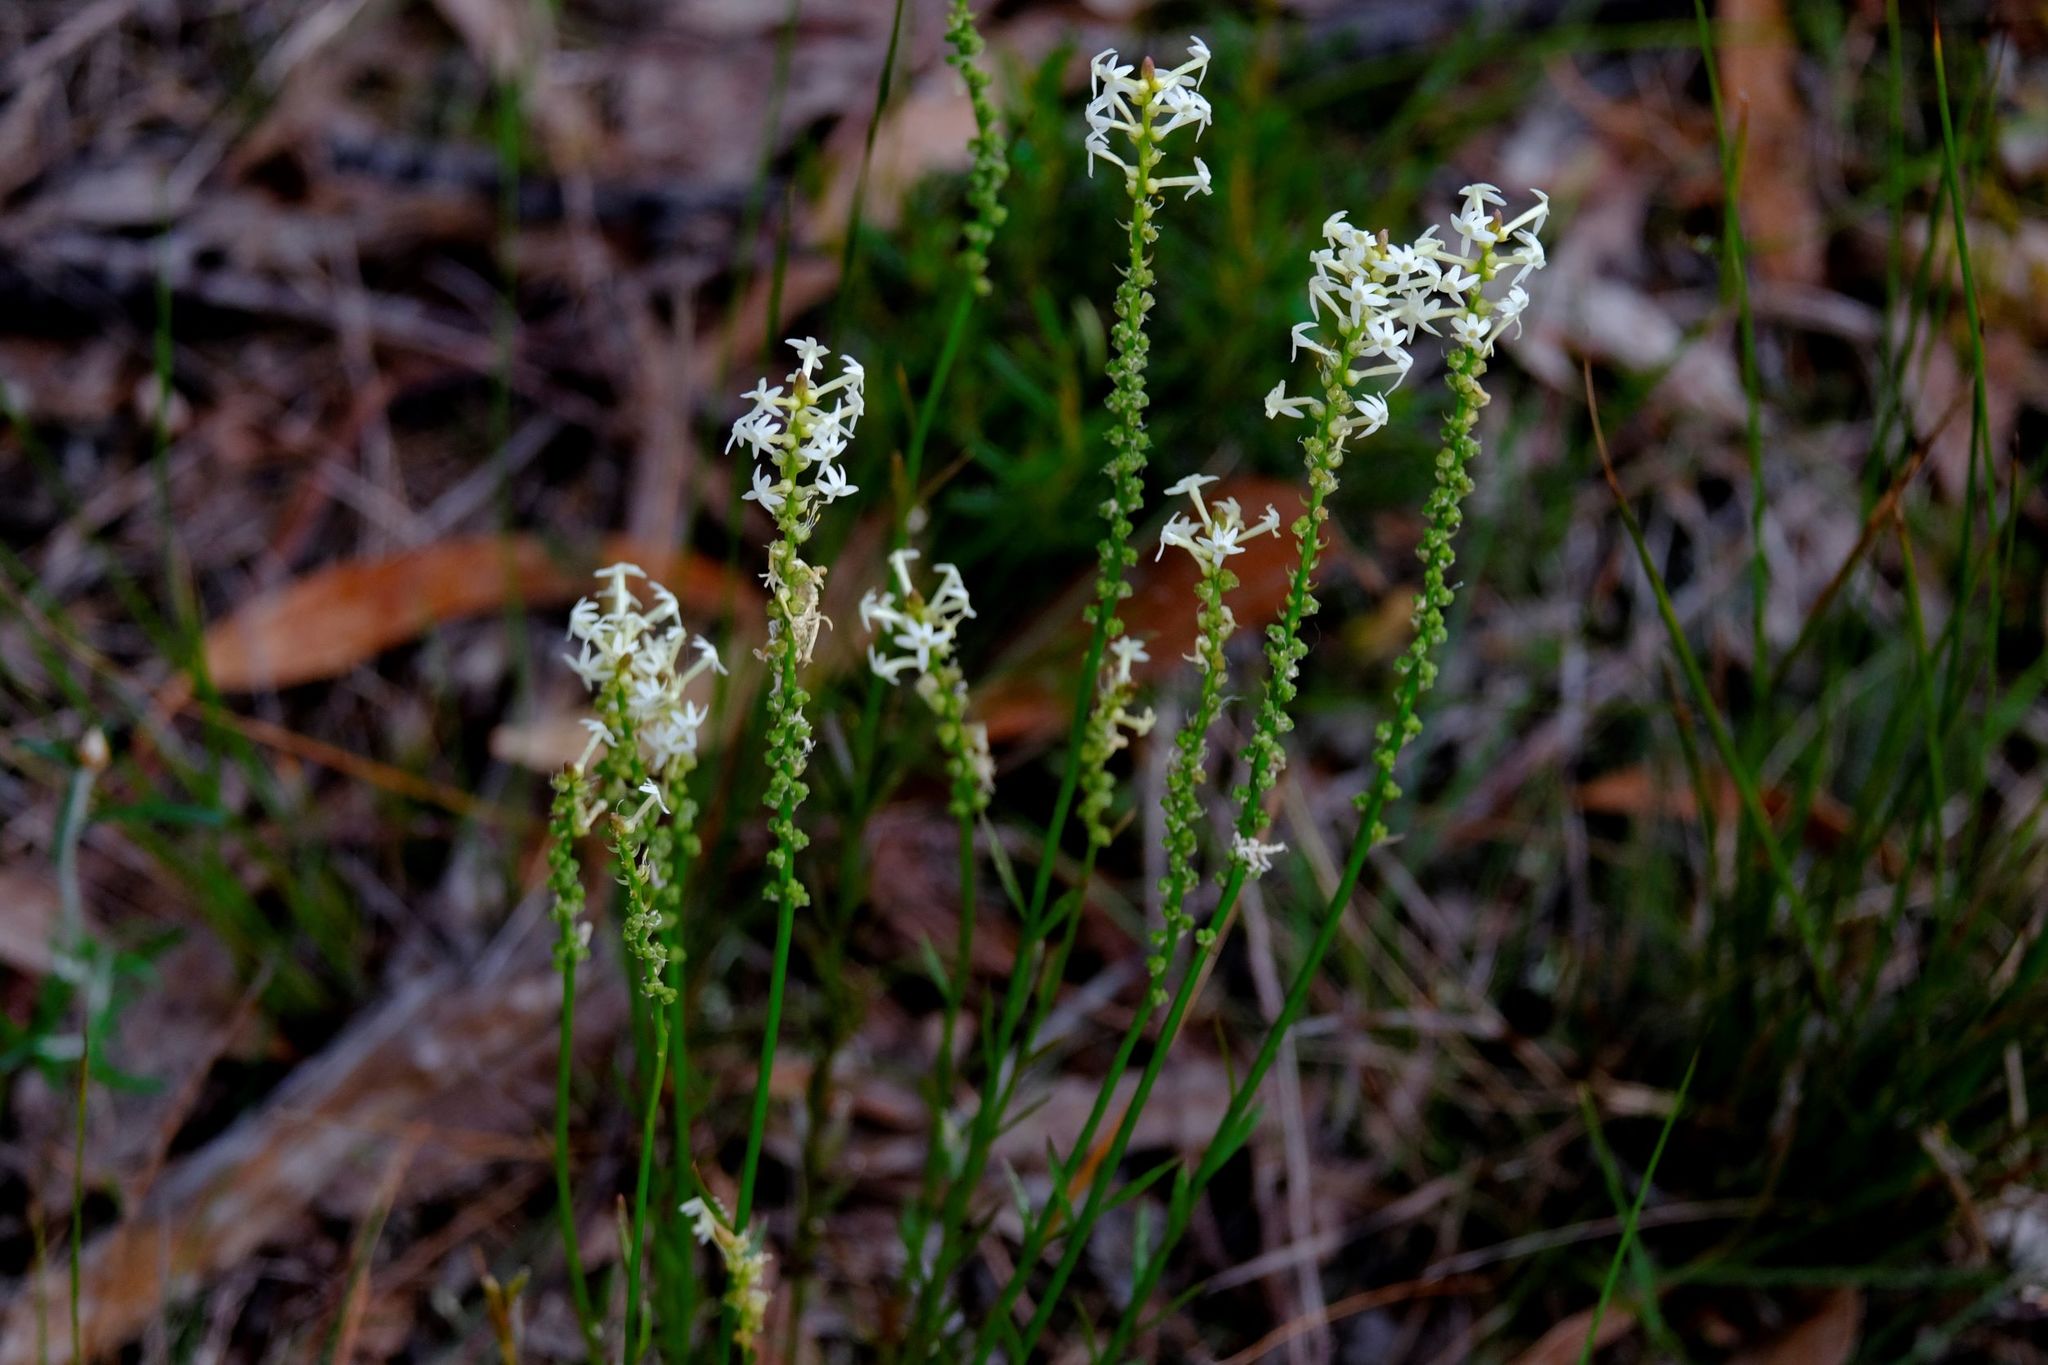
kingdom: Plantae
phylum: Tracheophyta
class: Magnoliopsida
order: Celastrales
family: Celastraceae
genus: Stackhousia
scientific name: Stackhousia monogyna
